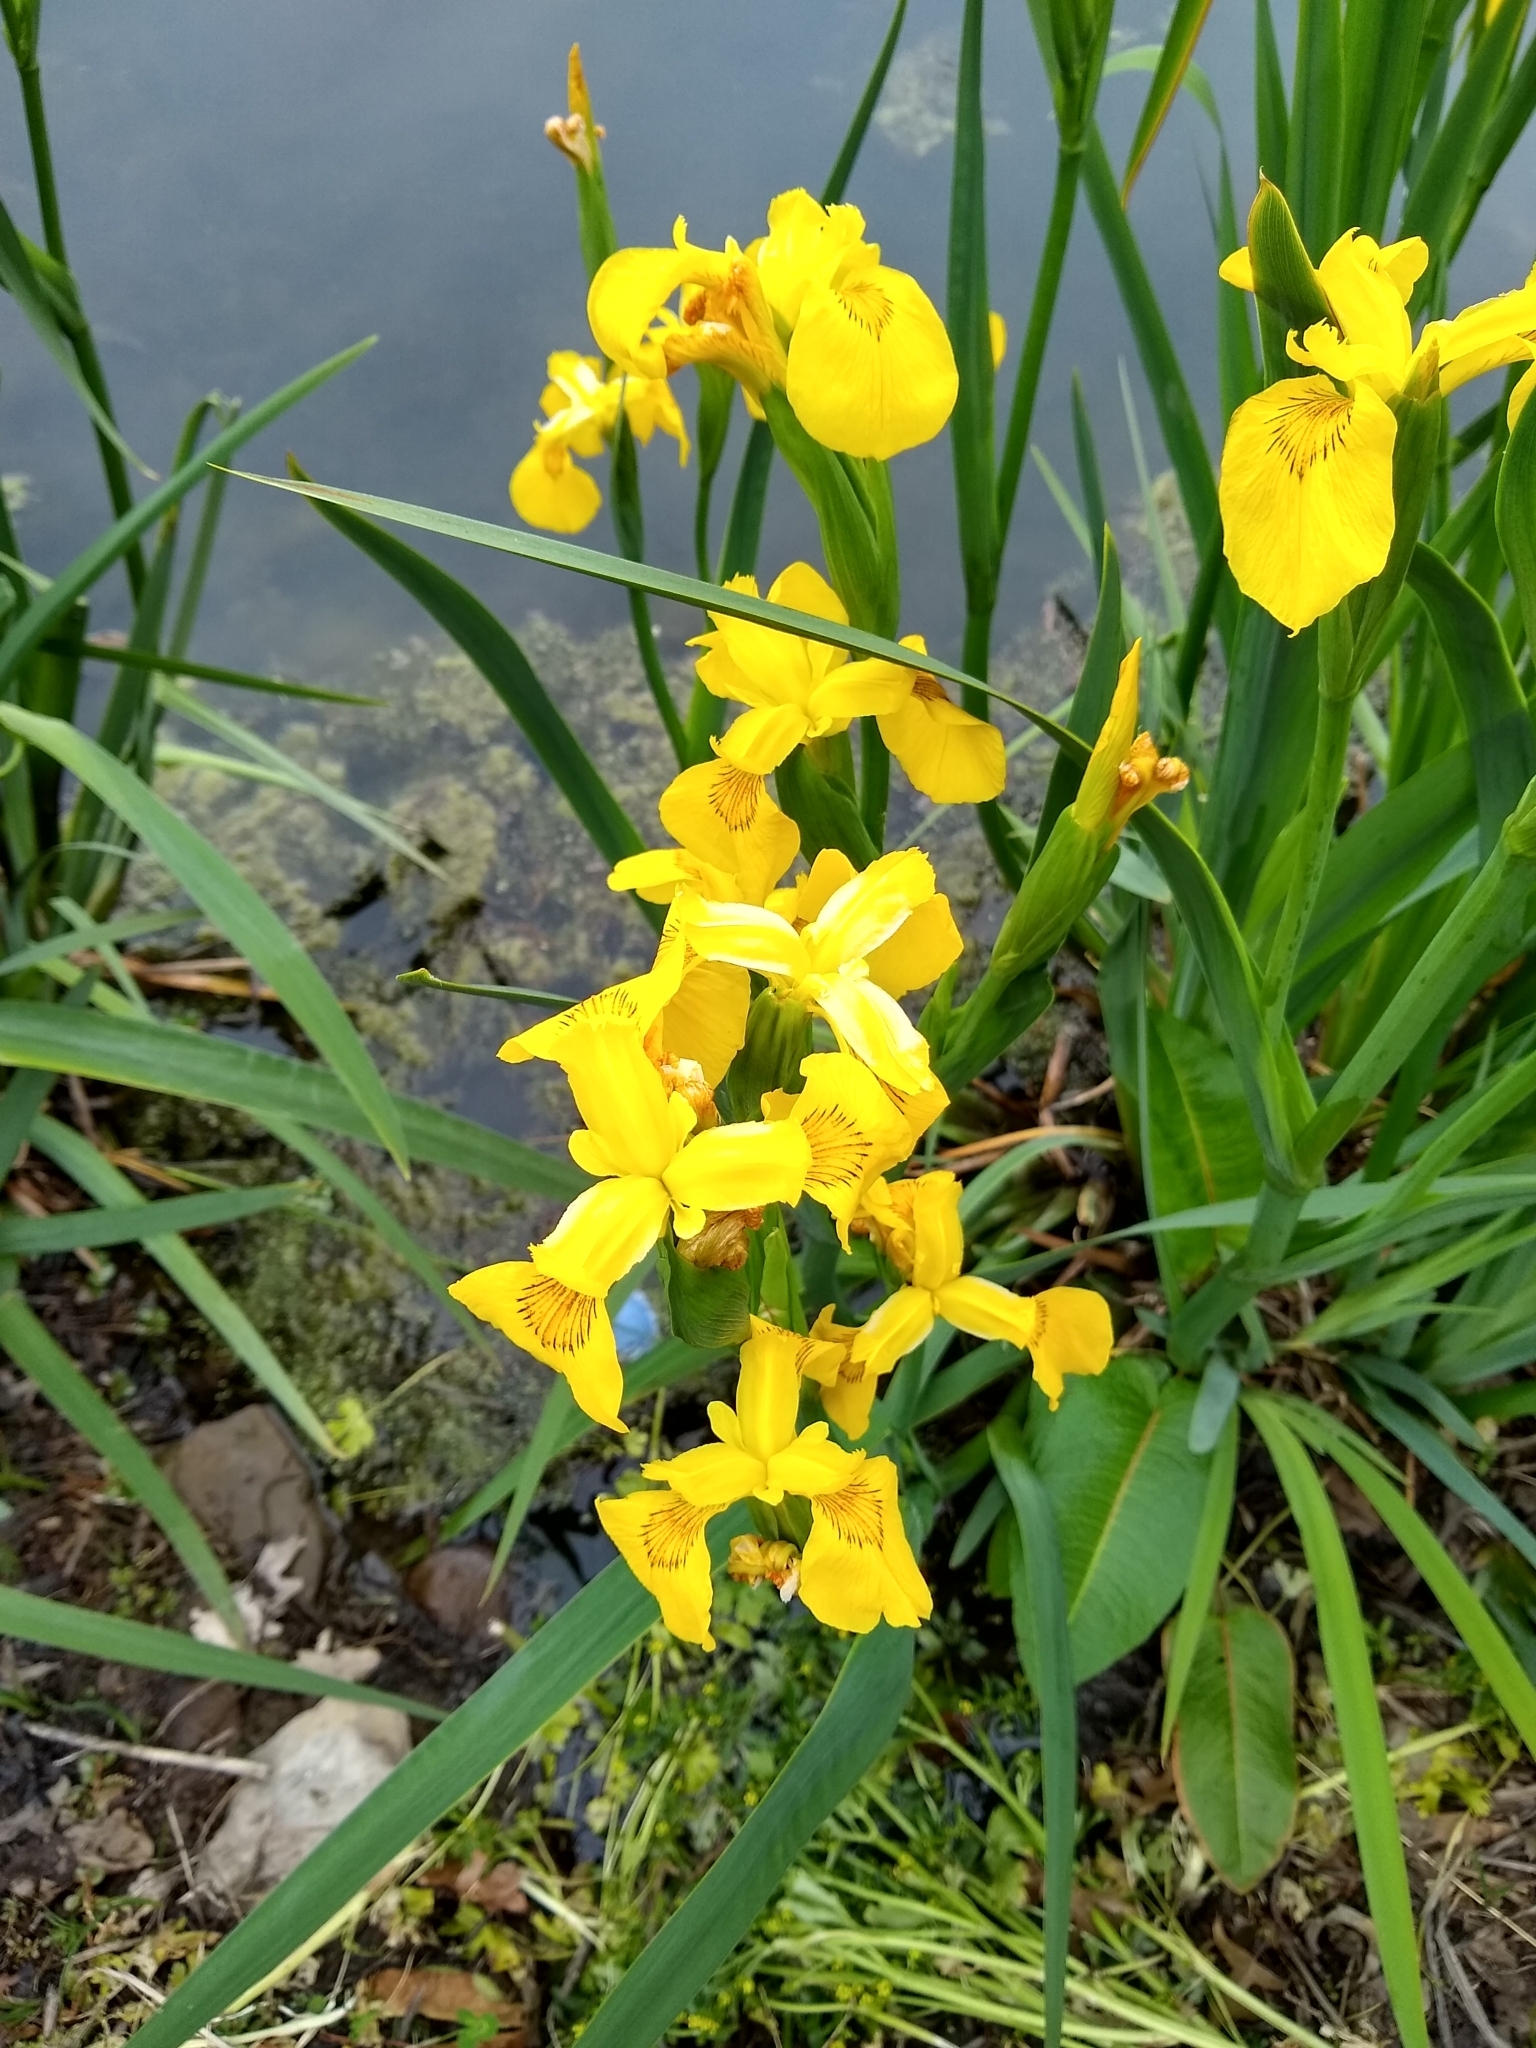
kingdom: Plantae
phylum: Tracheophyta
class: Liliopsida
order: Asparagales
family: Iridaceae
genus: Iris
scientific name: Iris pseudacorus
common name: Yellow flag
